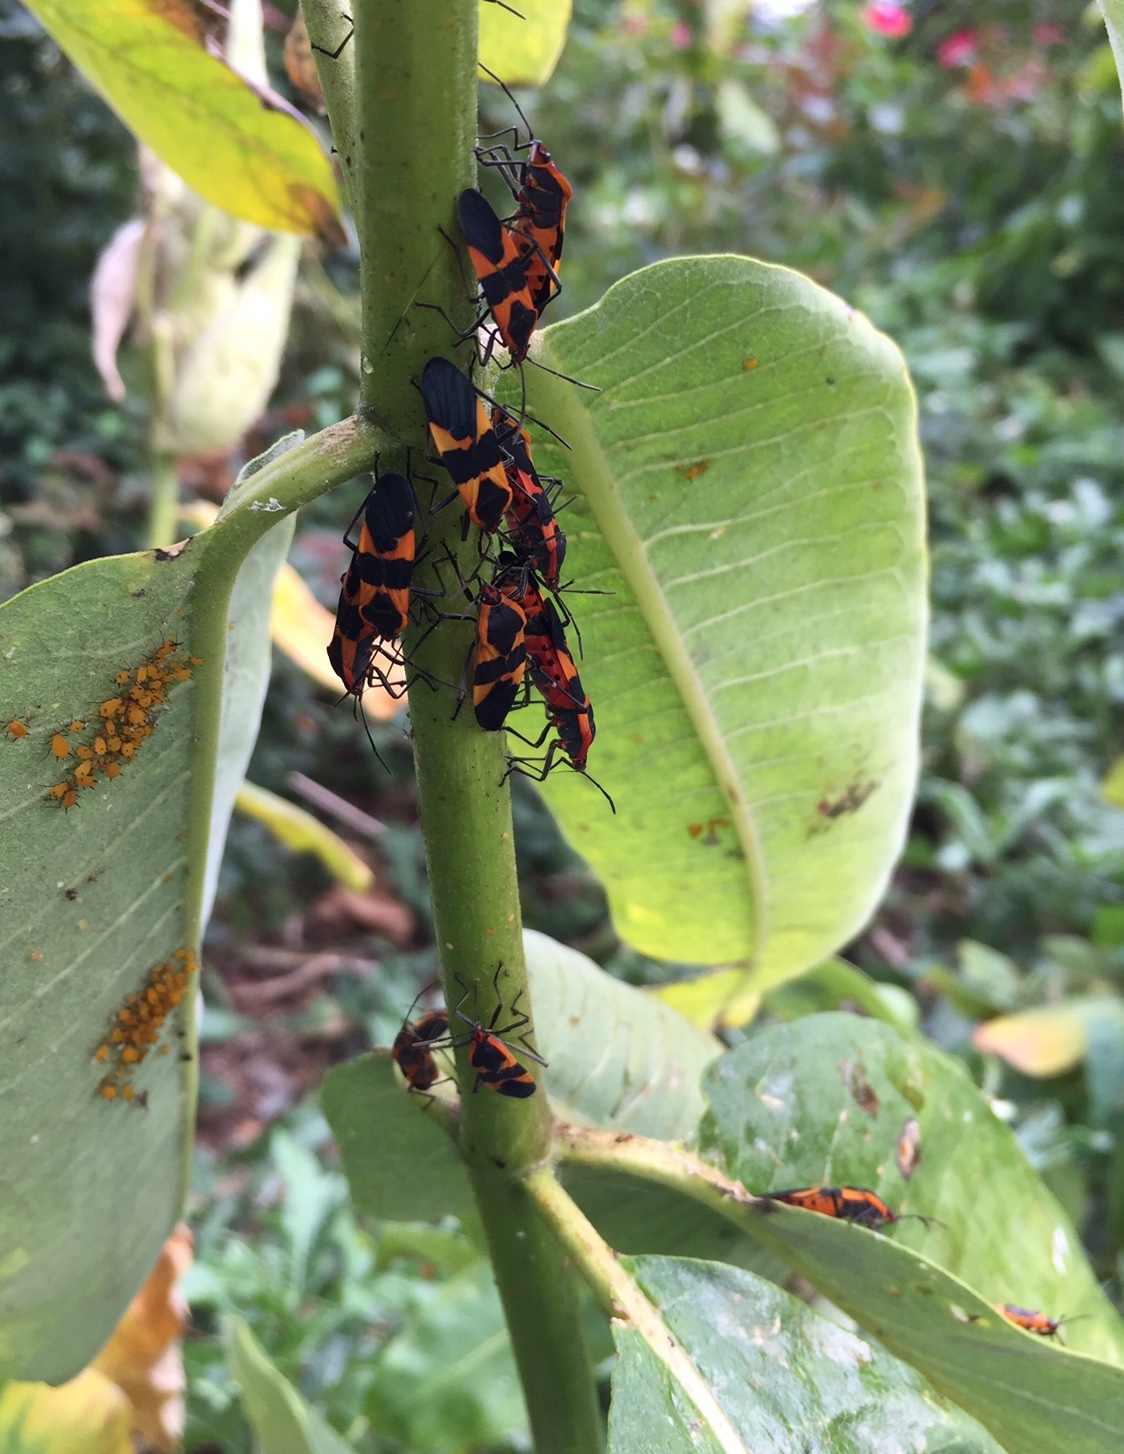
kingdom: Animalia
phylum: Arthropoda
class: Insecta
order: Hemiptera
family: Lygaeidae
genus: Oncopeltus
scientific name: Oncopeltus fasciatus
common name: Large milkweed bug
